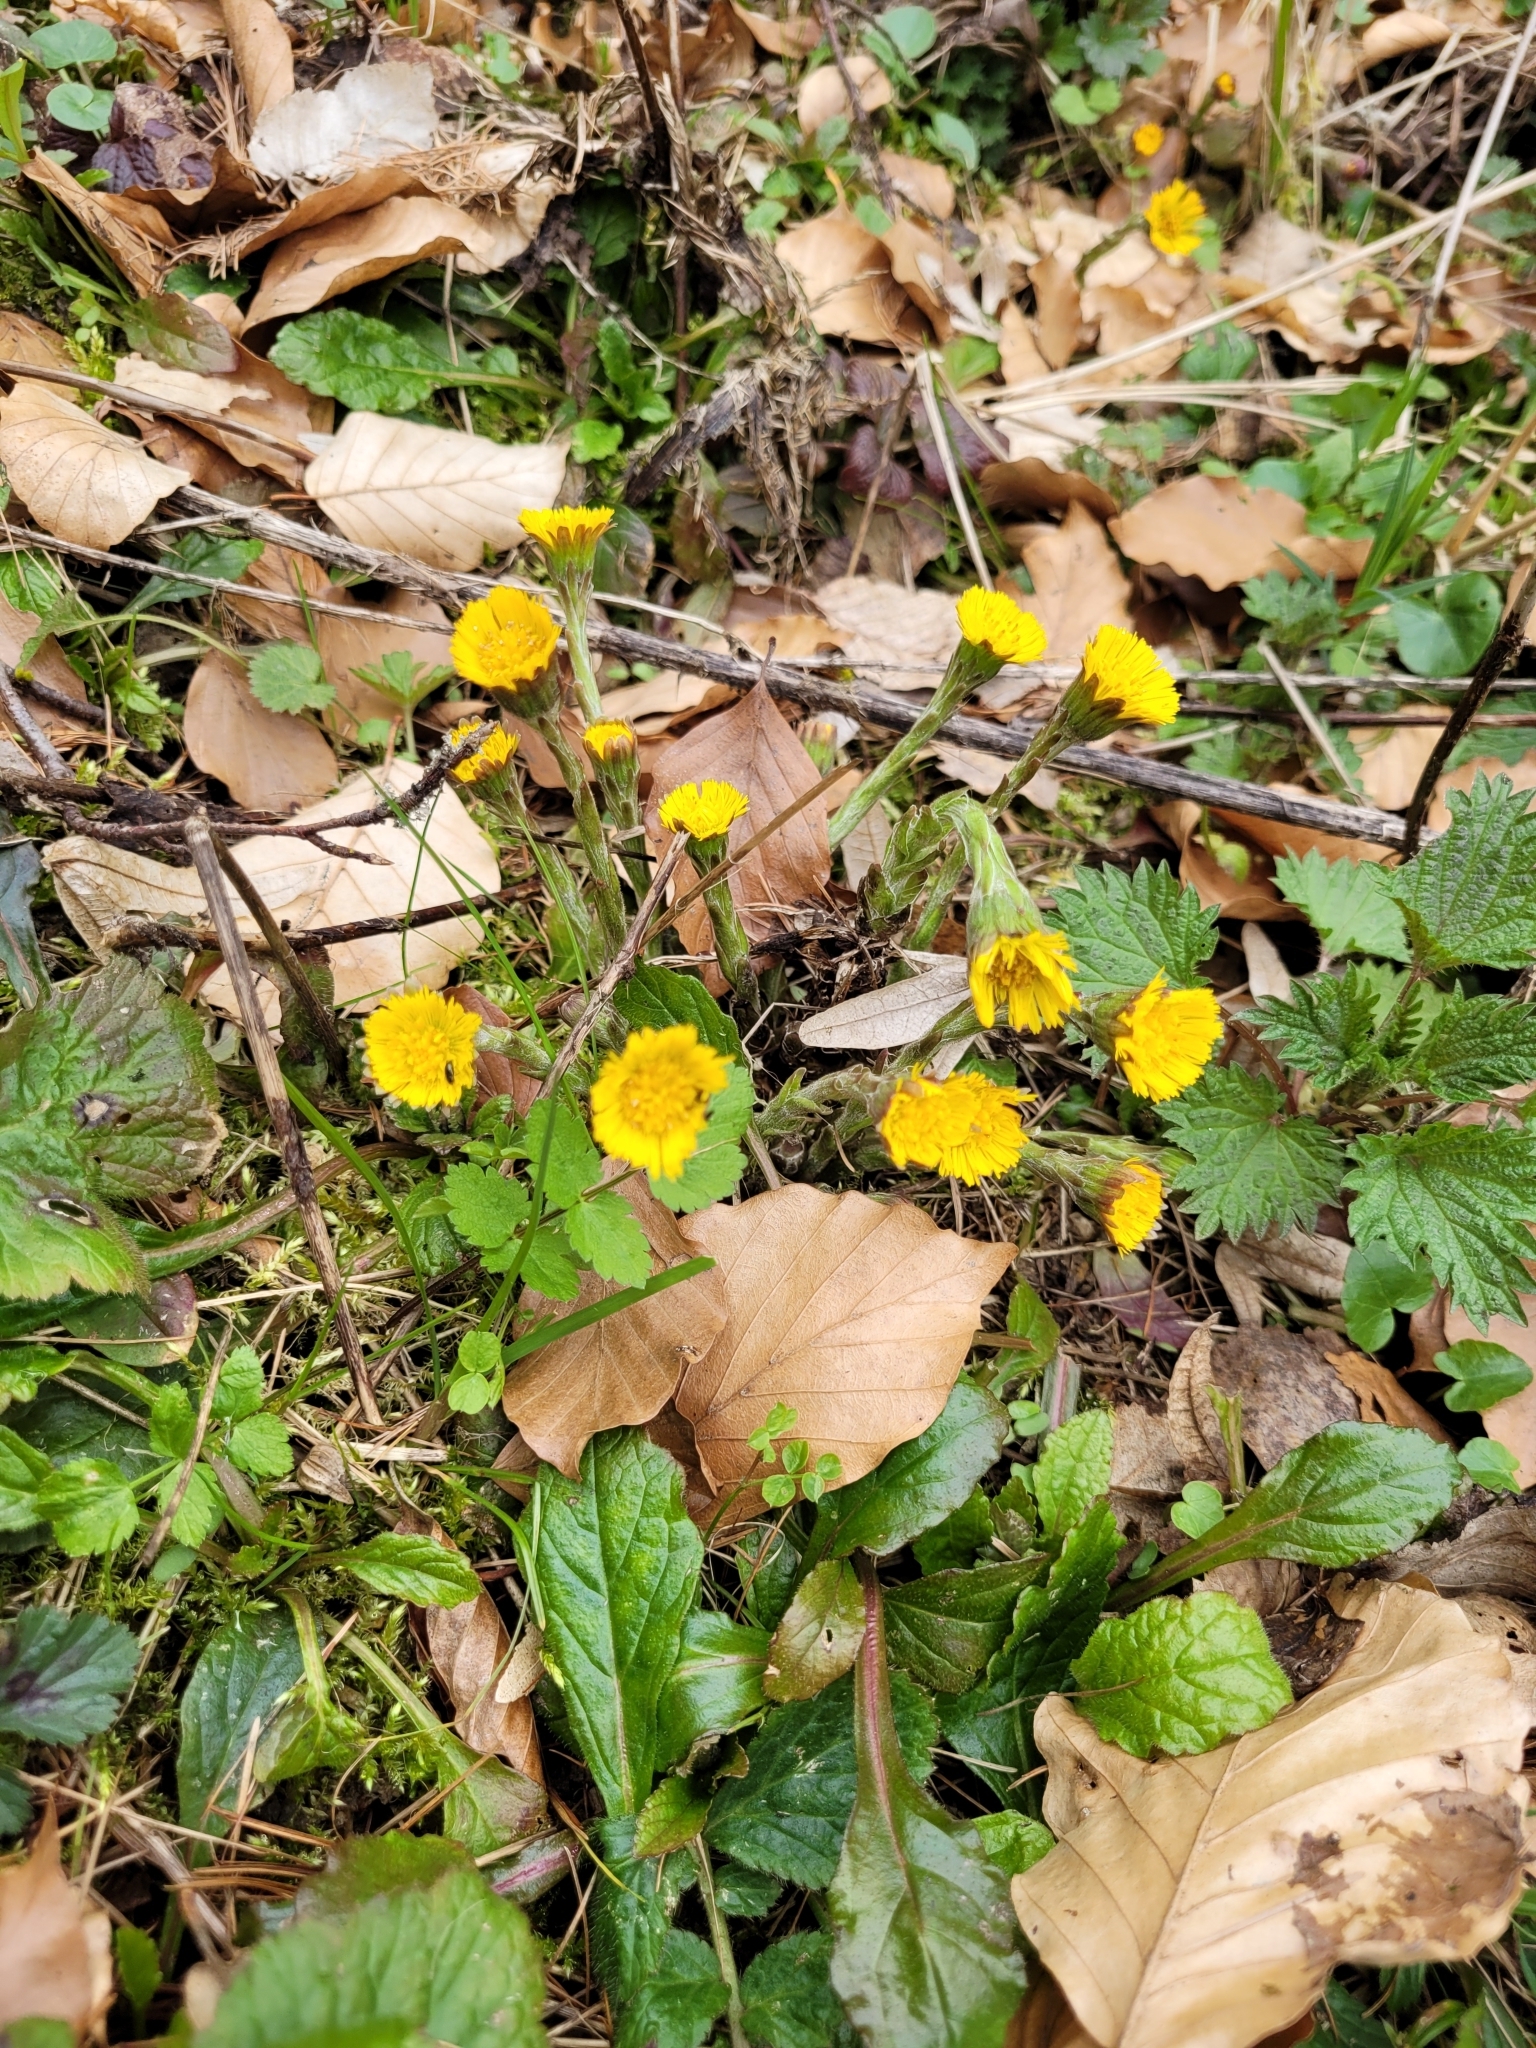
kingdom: Plantae
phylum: Tracheophyta
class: Magnoliopsida
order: Asterales
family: Asteraceae
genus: Tussilago
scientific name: Tussilago farfara
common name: Coltsfoot
